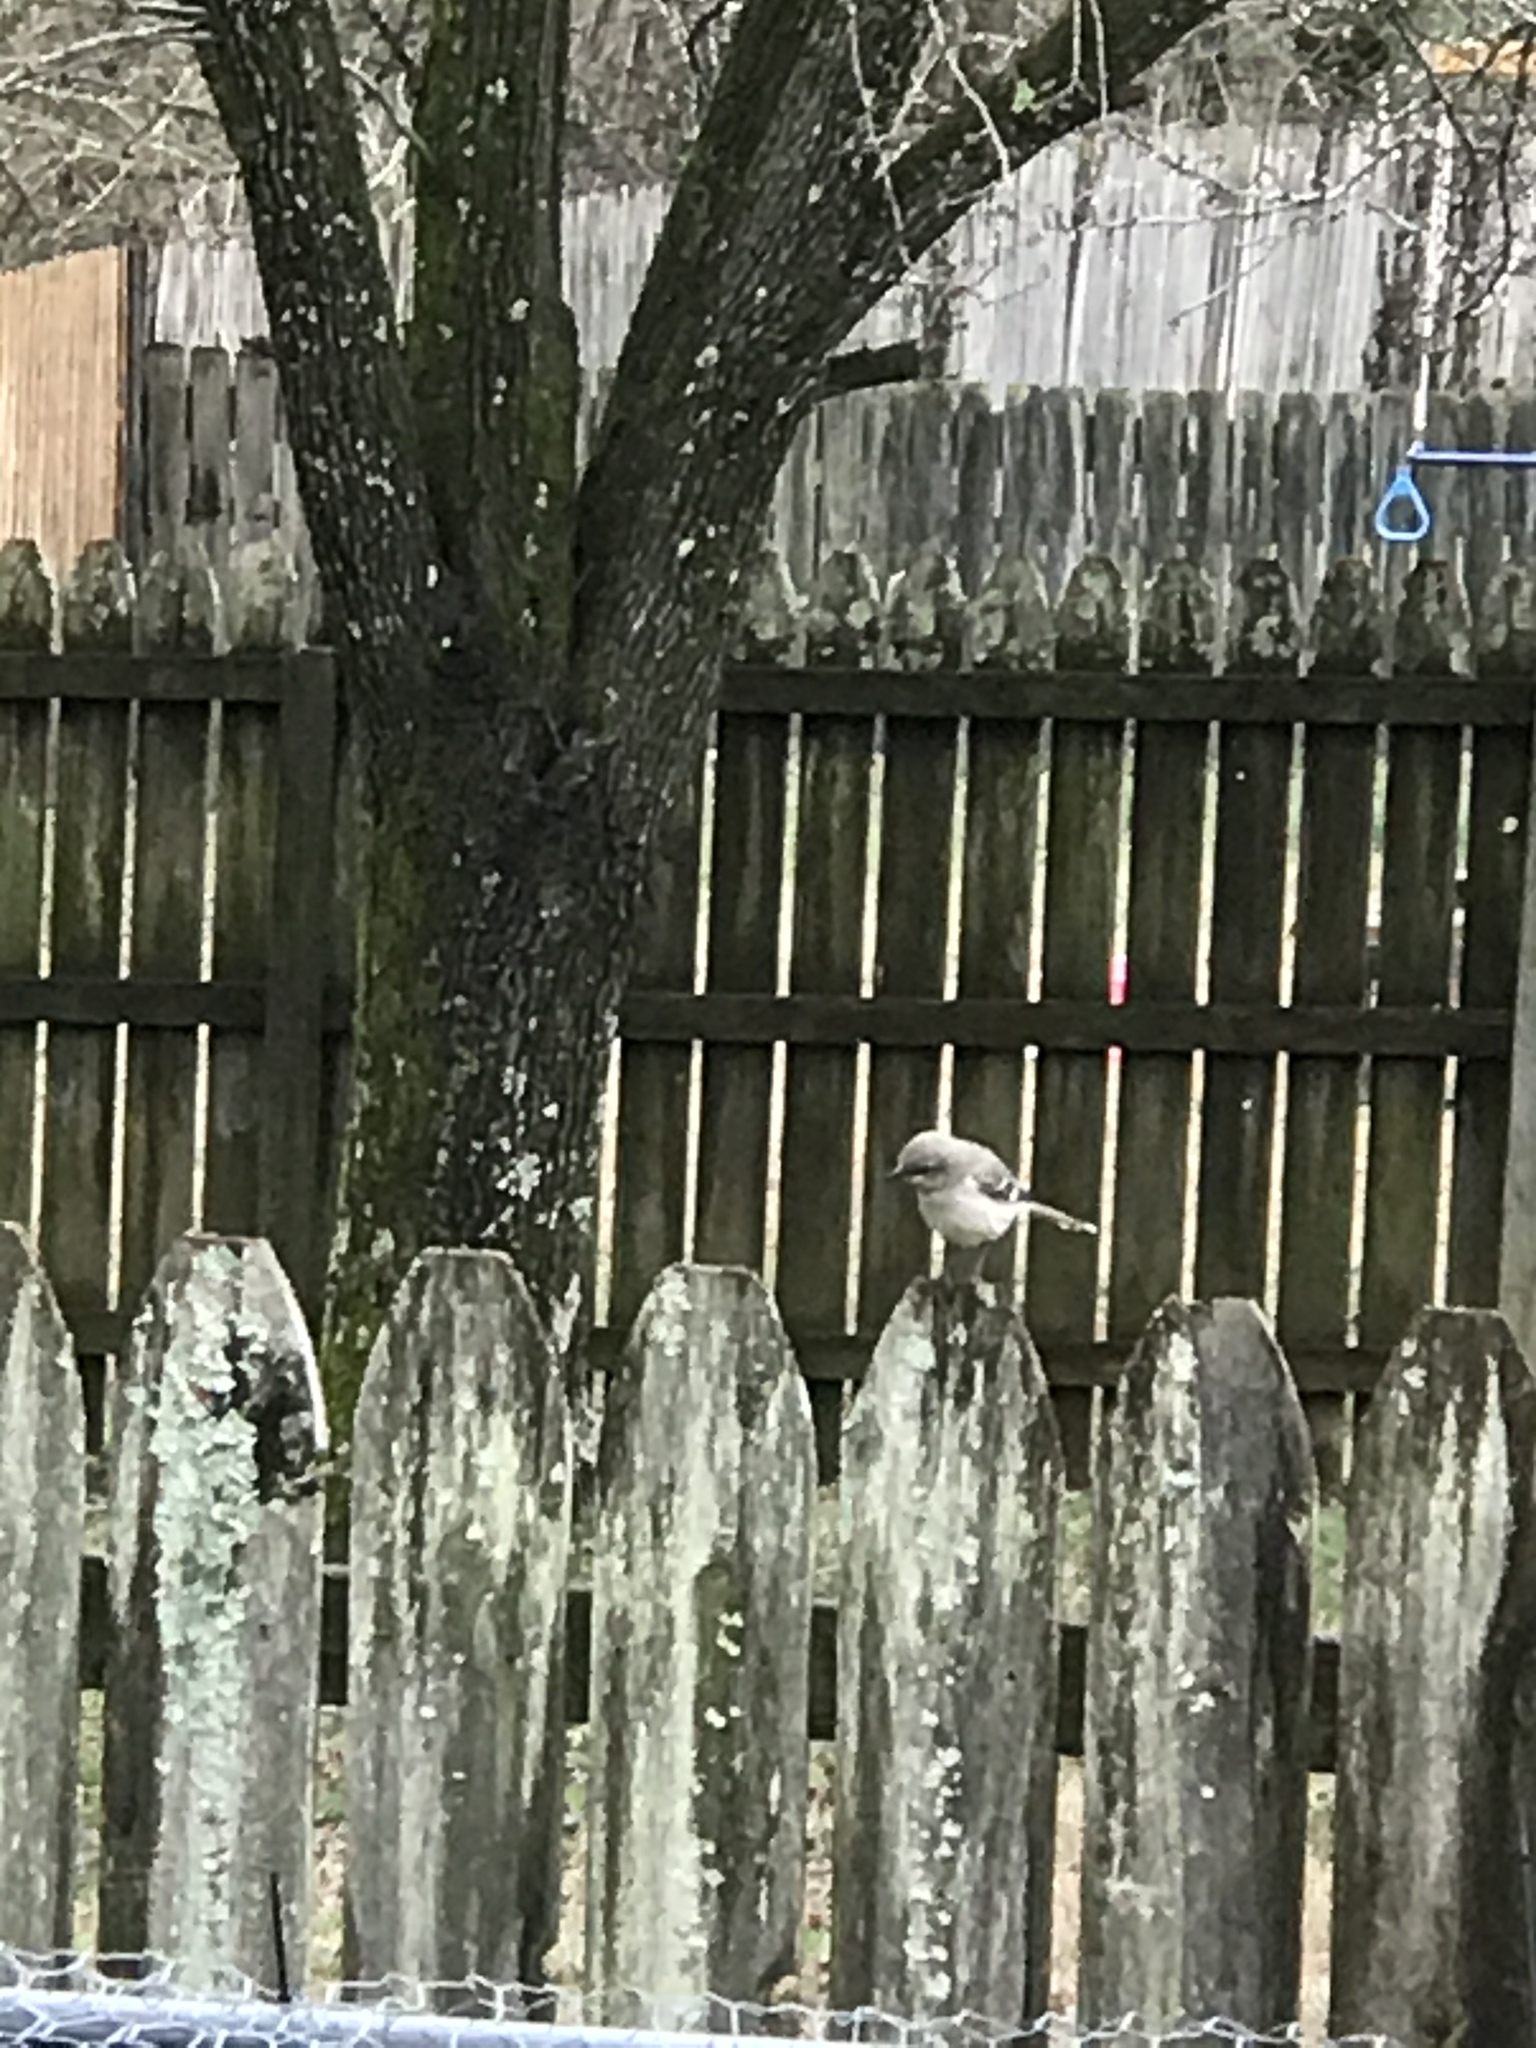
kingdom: Animalia
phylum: Chordata
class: Aves
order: Passeriformes
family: Mimidae
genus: Mimus
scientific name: Mimus polyglottos
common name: Northern mockingbird
